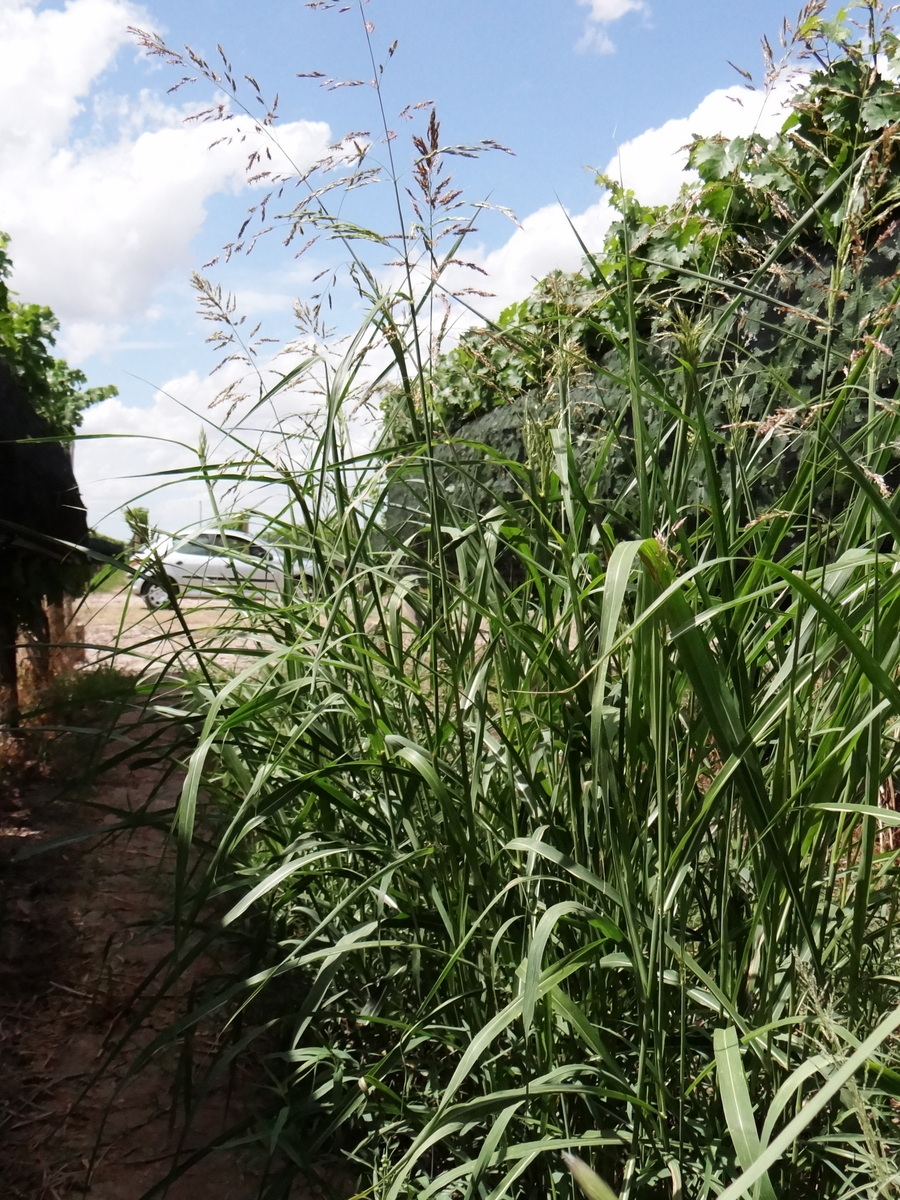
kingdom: Plantae
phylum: Tracheophyta
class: Liliopsida
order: Poales
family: Poaceae
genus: Sorghum
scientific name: Sorghum halepense
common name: Johnson-grass
